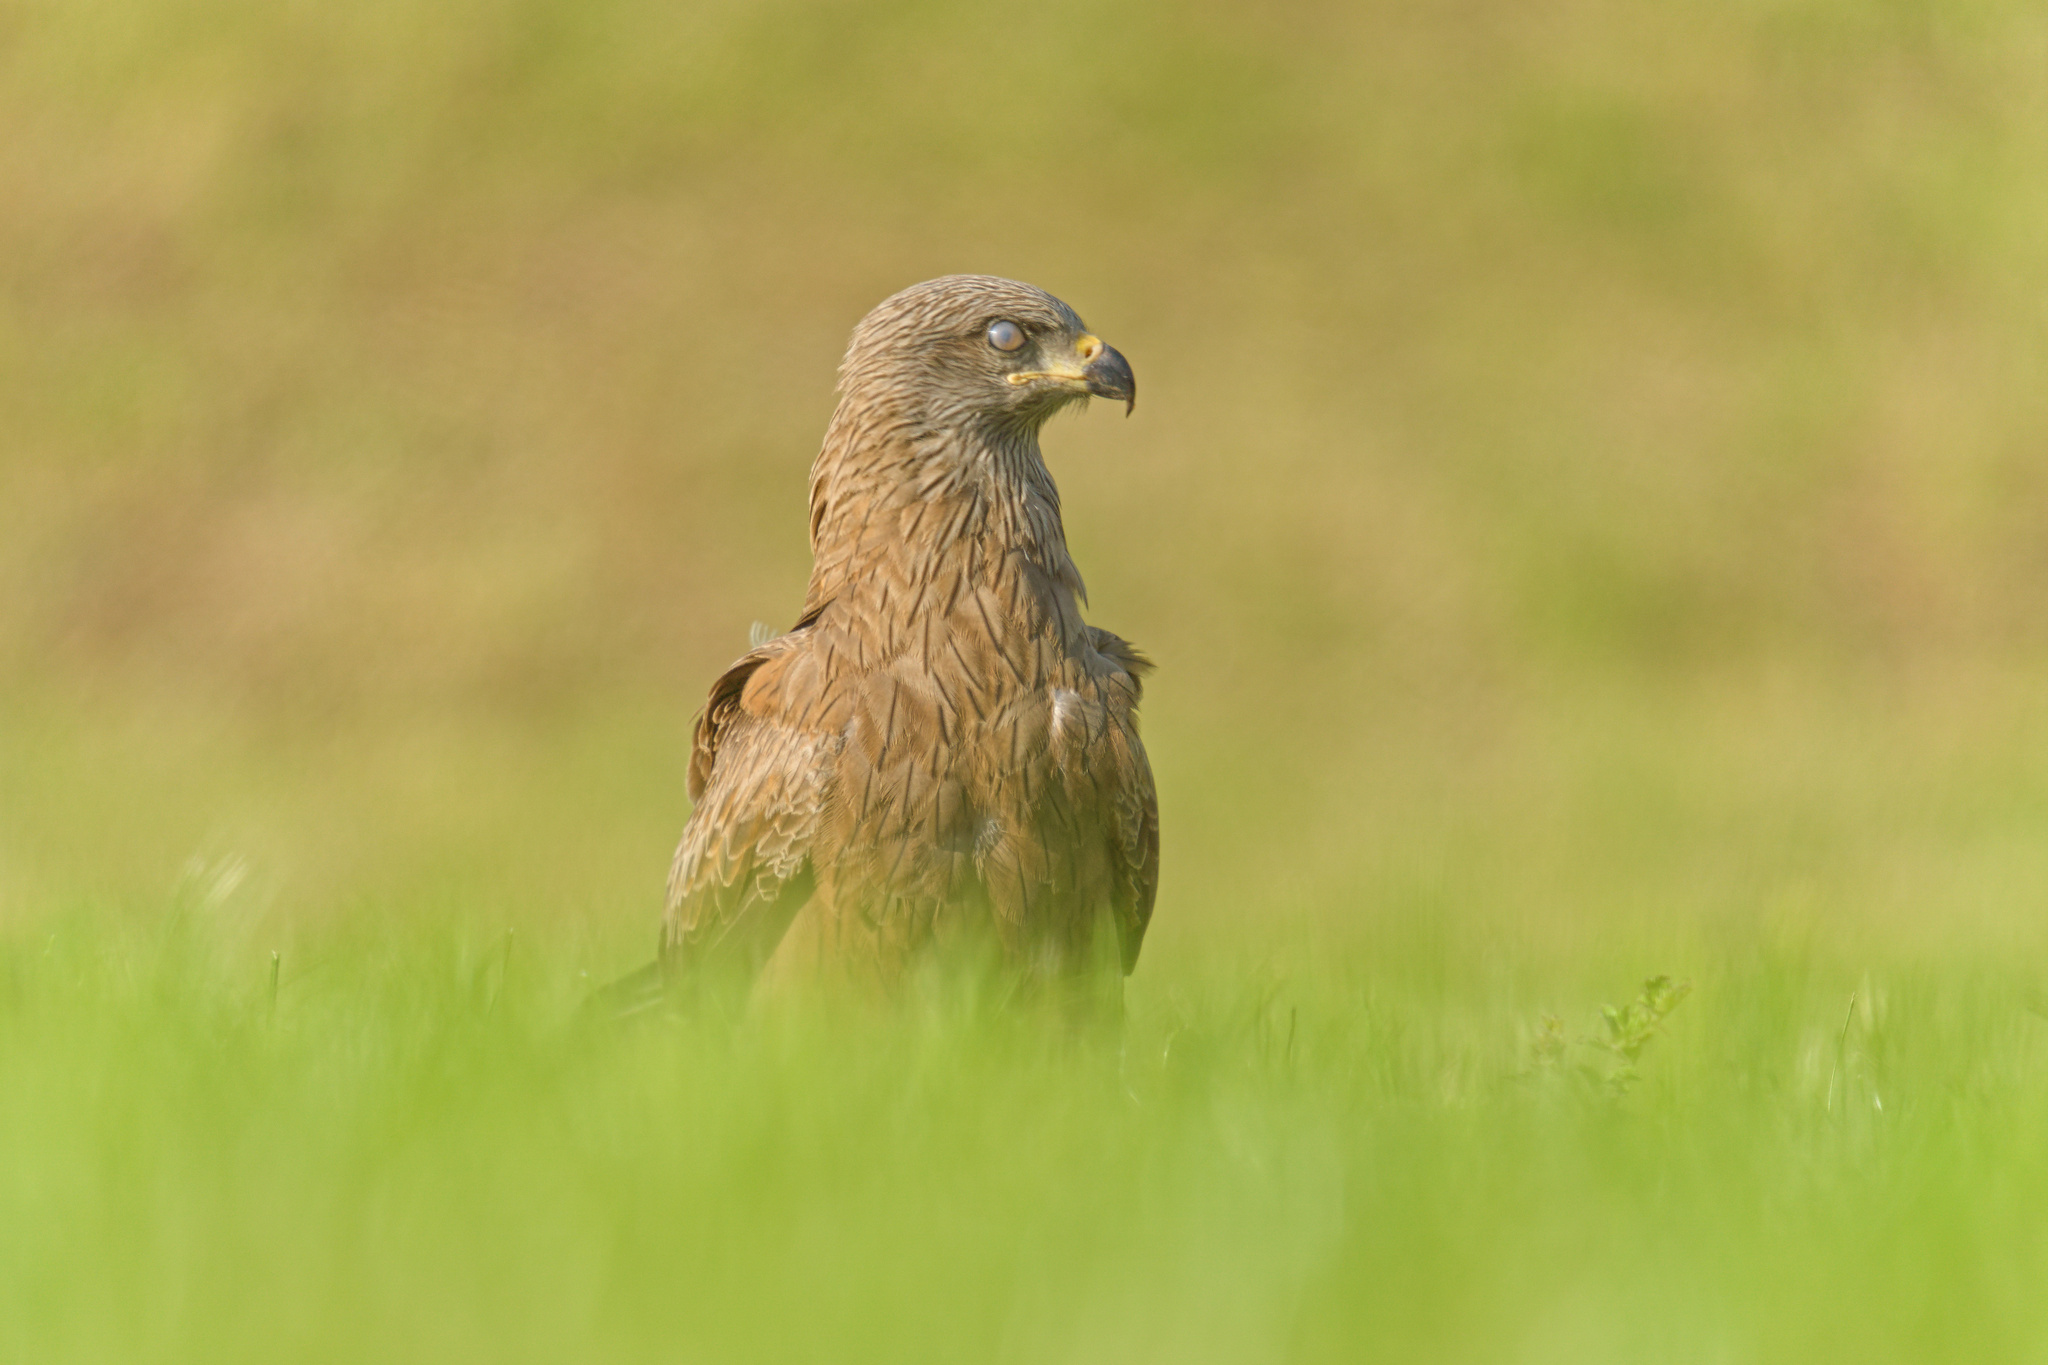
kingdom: Animalia
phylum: Chordata
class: Aves
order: Accipitriformes
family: Accipitridae
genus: Milvus
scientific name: Milvus migrans
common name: Black kite
